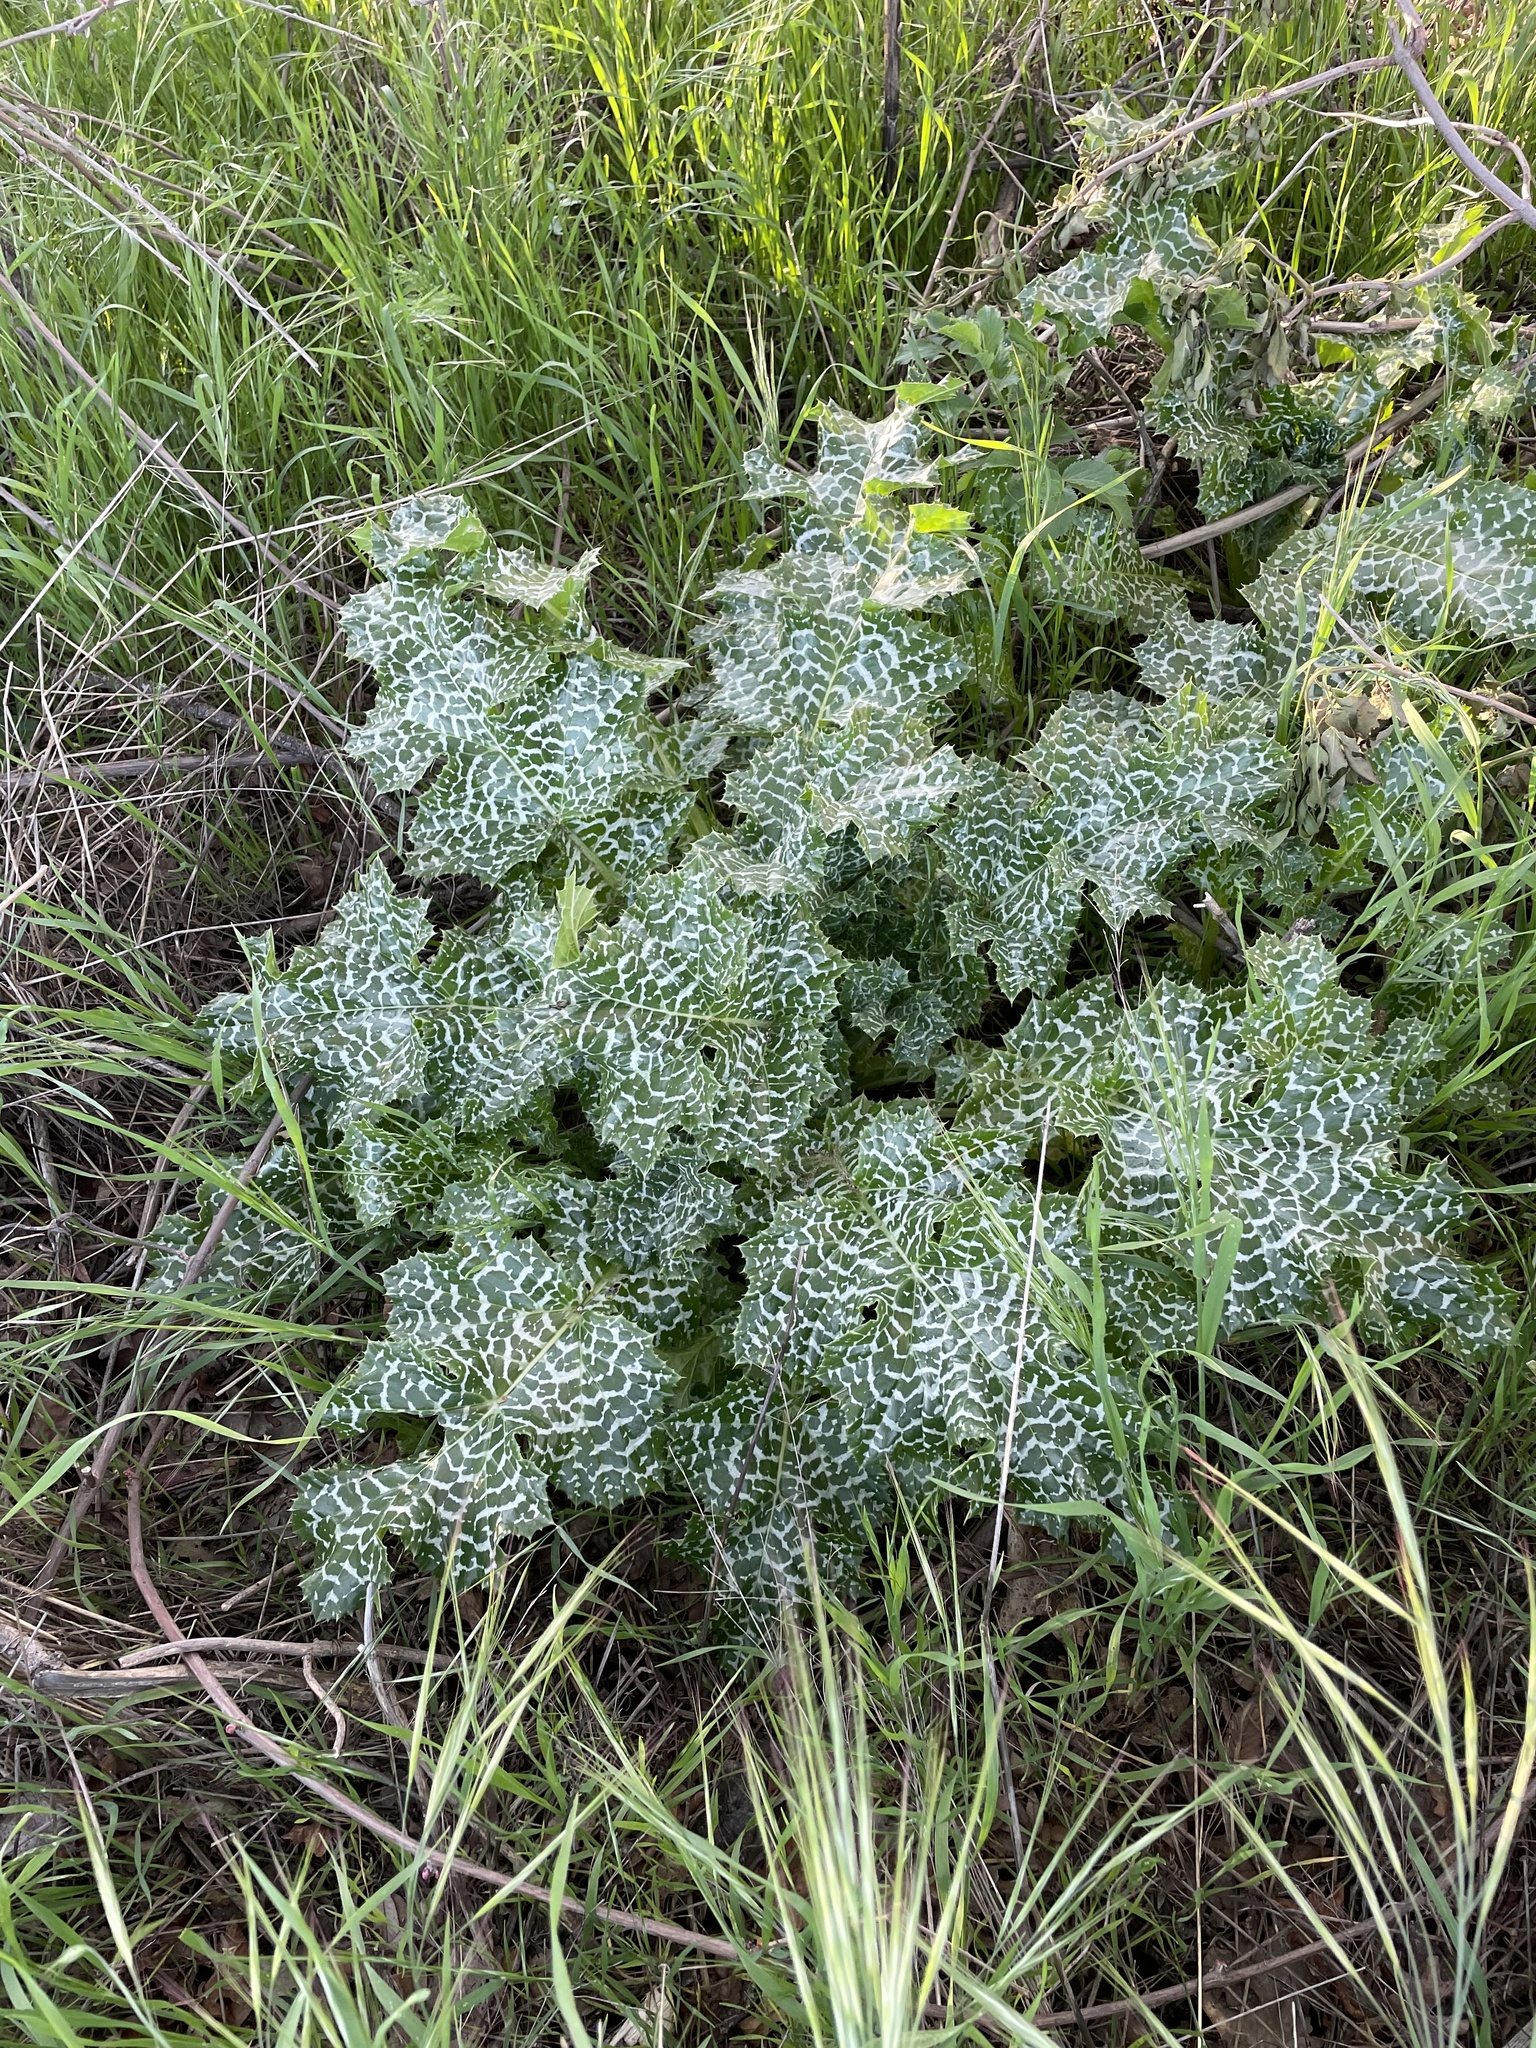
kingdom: Plantae
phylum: Tracheophyta
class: Magnoliopsida
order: Asterales
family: Asteraceae
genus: Silybum
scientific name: Silybum marianum
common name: Milk thistle
